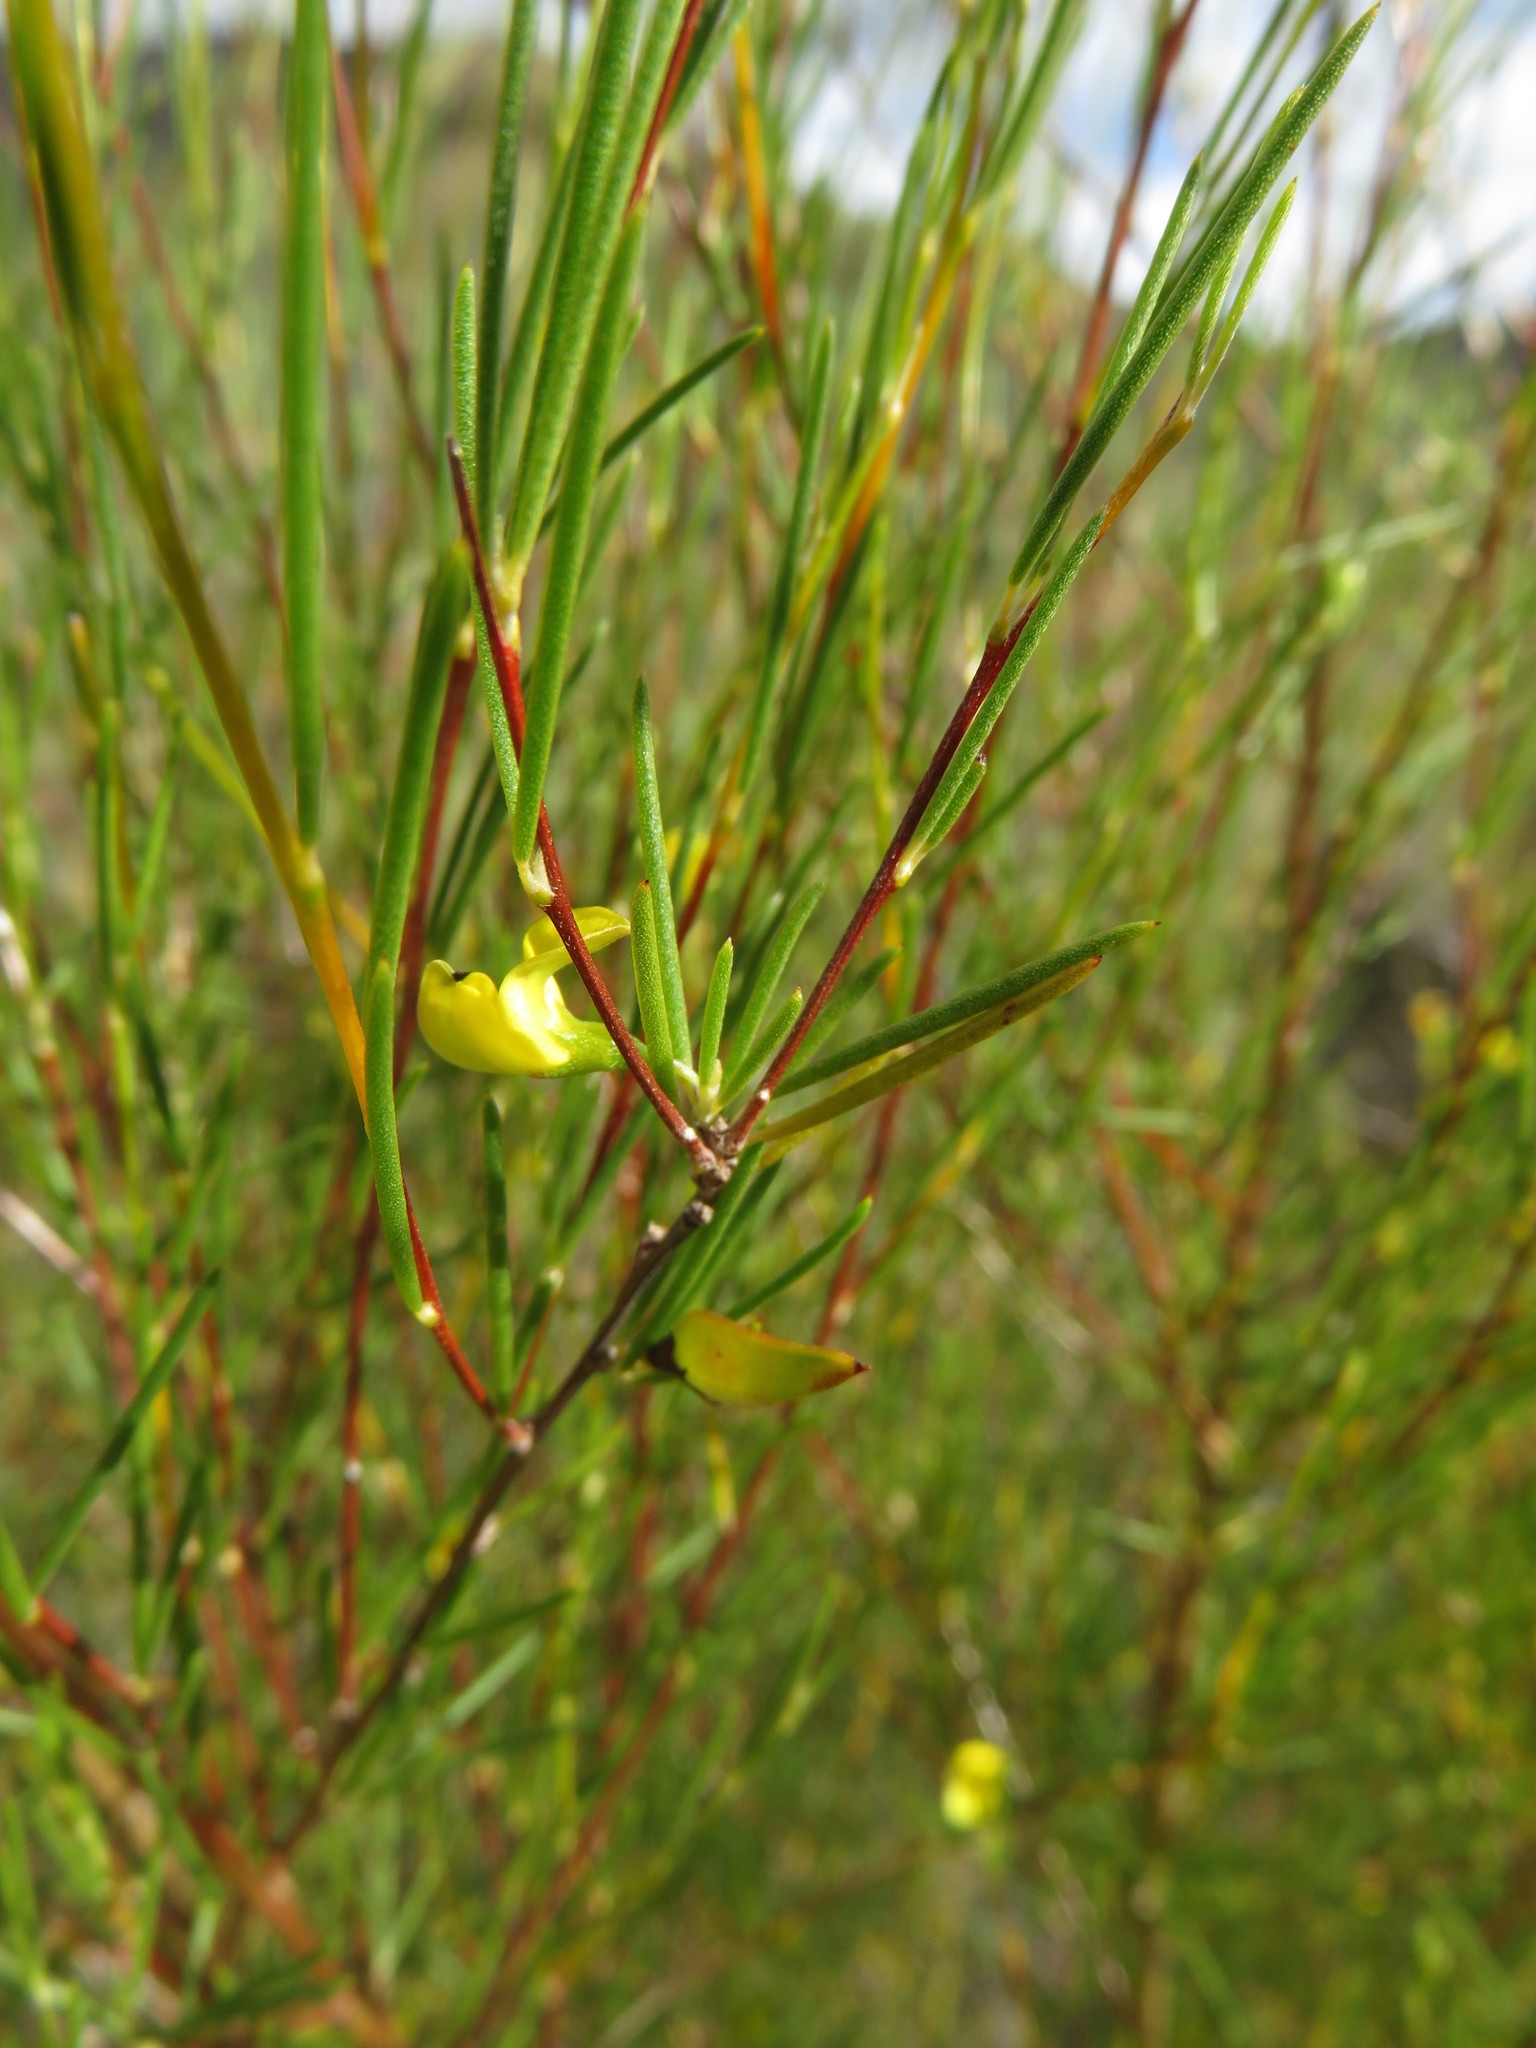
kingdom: Plantae
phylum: Tracheophyta
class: Magnoliopsida
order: Fabales
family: Fabaceae
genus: Aspalathus
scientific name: Aspalathus linearis
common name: Rooibos-tea
